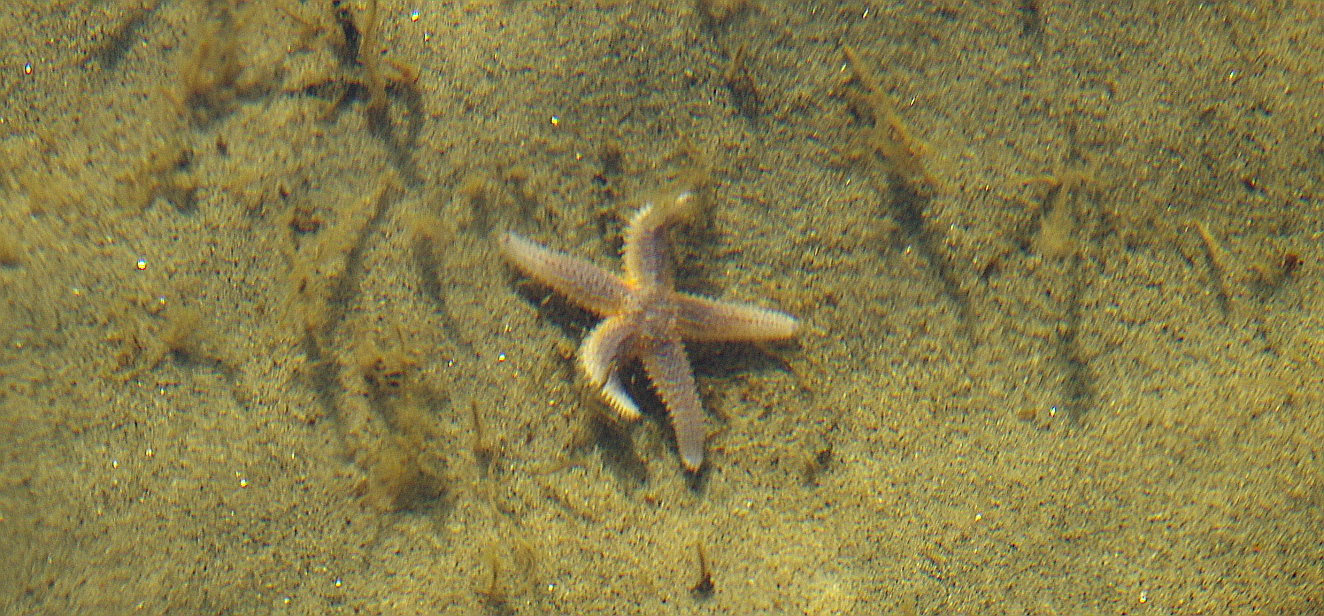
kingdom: Animalia
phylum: Echinodermata
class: Asteroidea
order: Forcipulatida
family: Asteriidae
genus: Asterias
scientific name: Asterias rubens
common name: Common starfish
